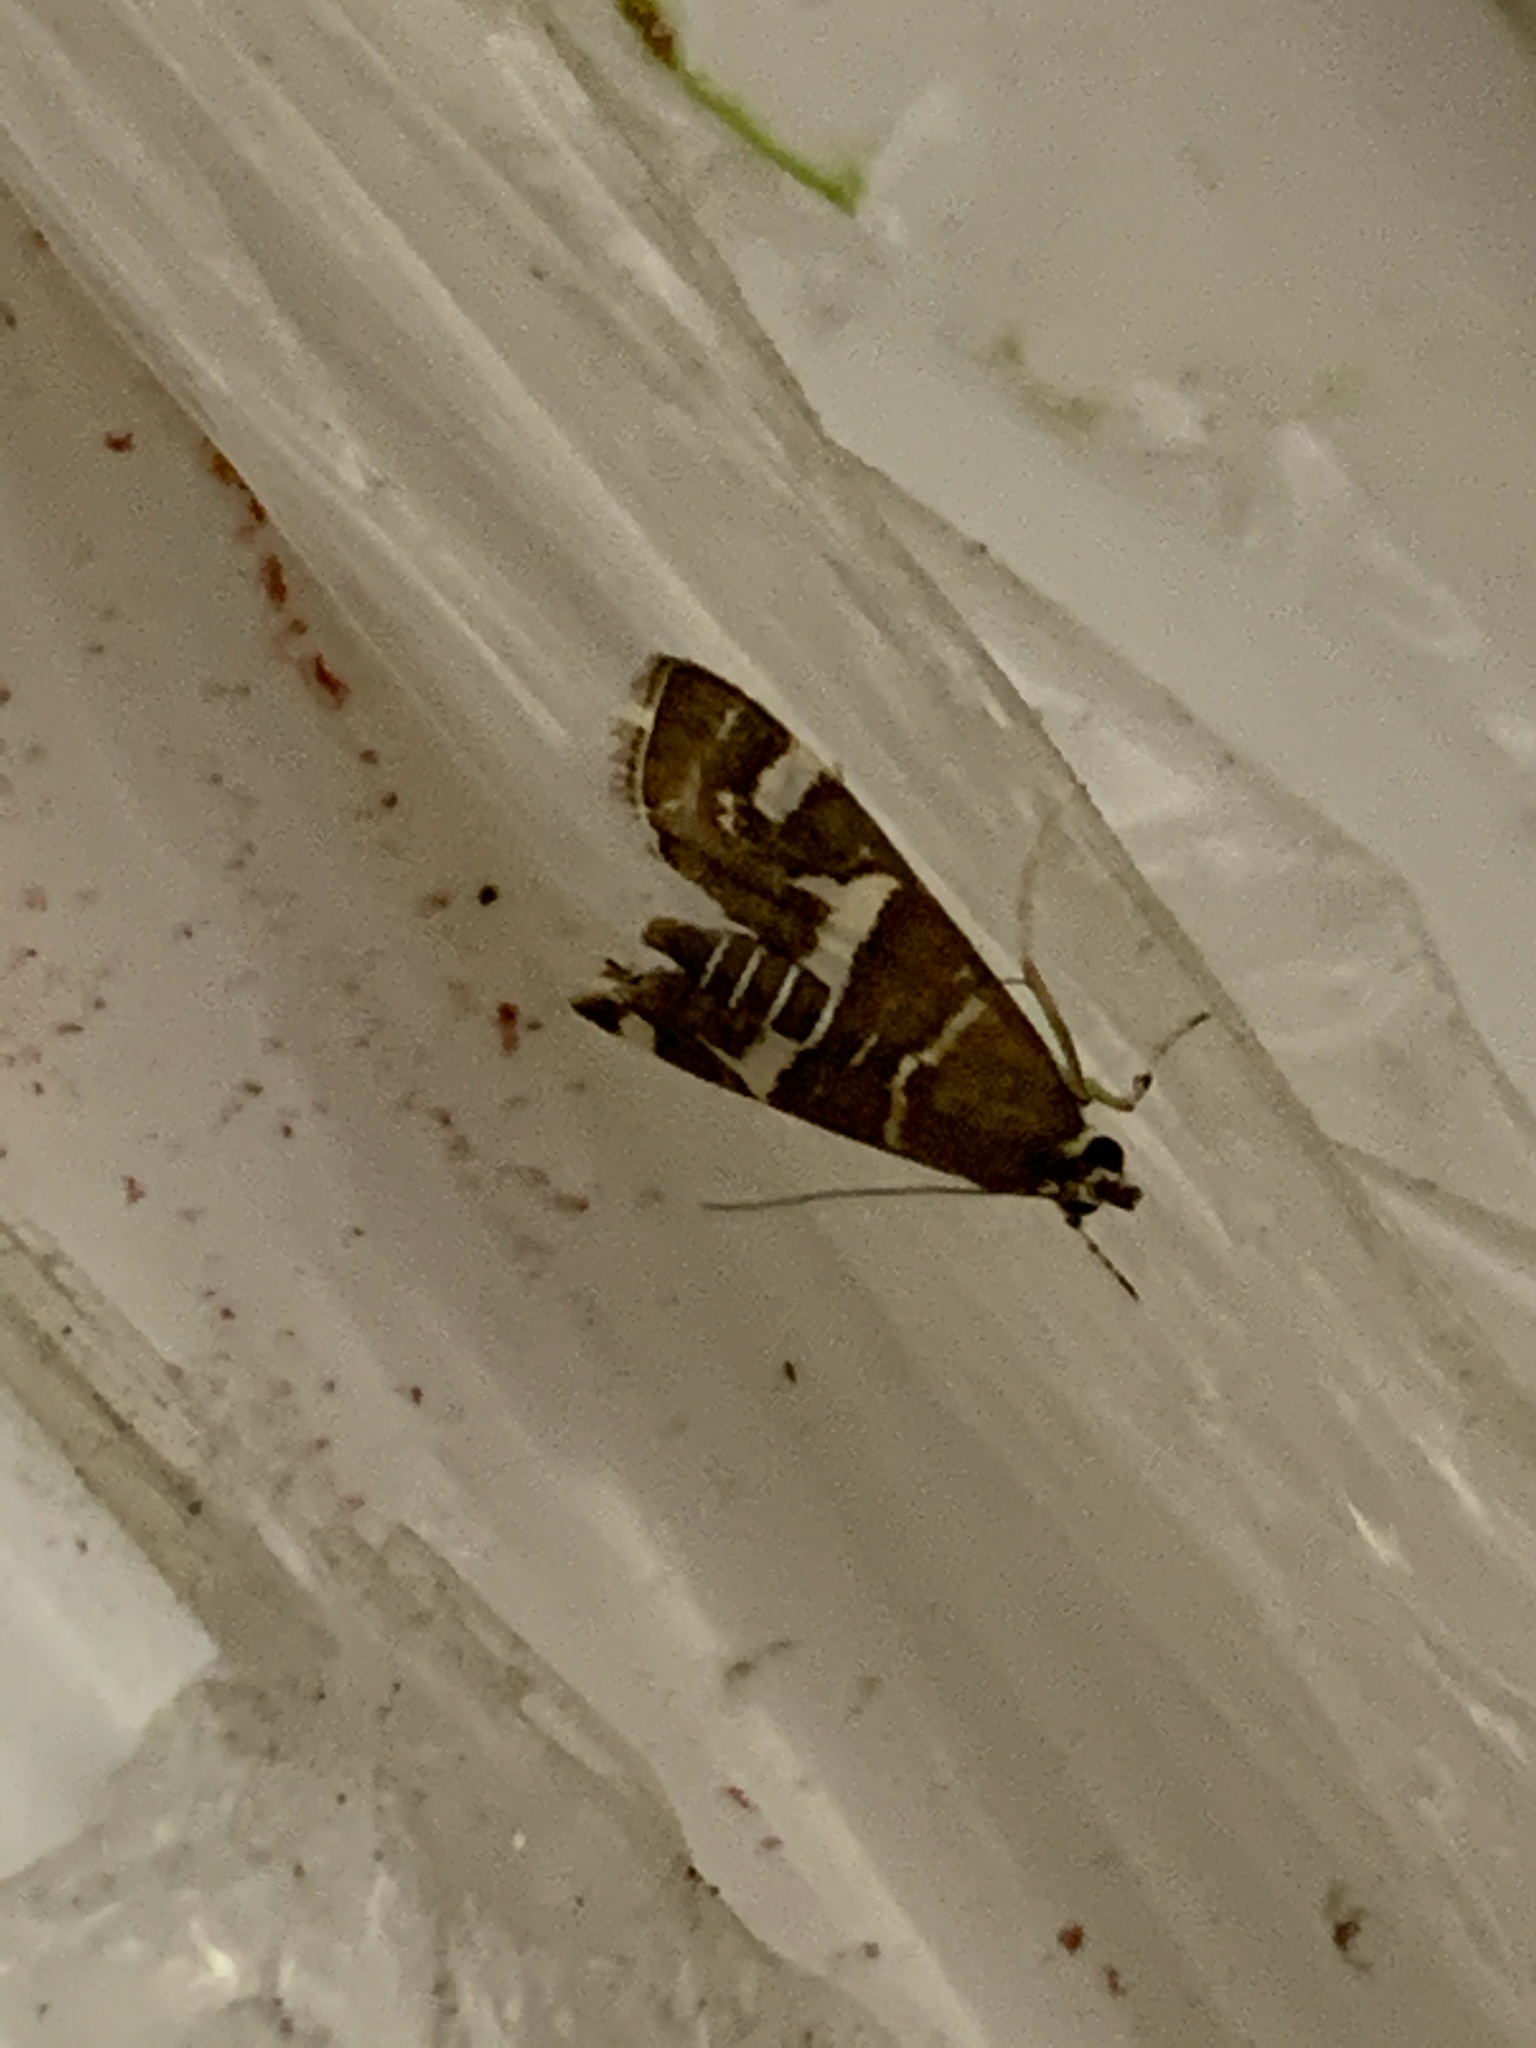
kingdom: Animalia
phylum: Arthropoda
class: Insecta
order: Lepidoptera
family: Crambidae
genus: Spoladea
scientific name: Spoladea recurvalis
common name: Beet webworm moth
